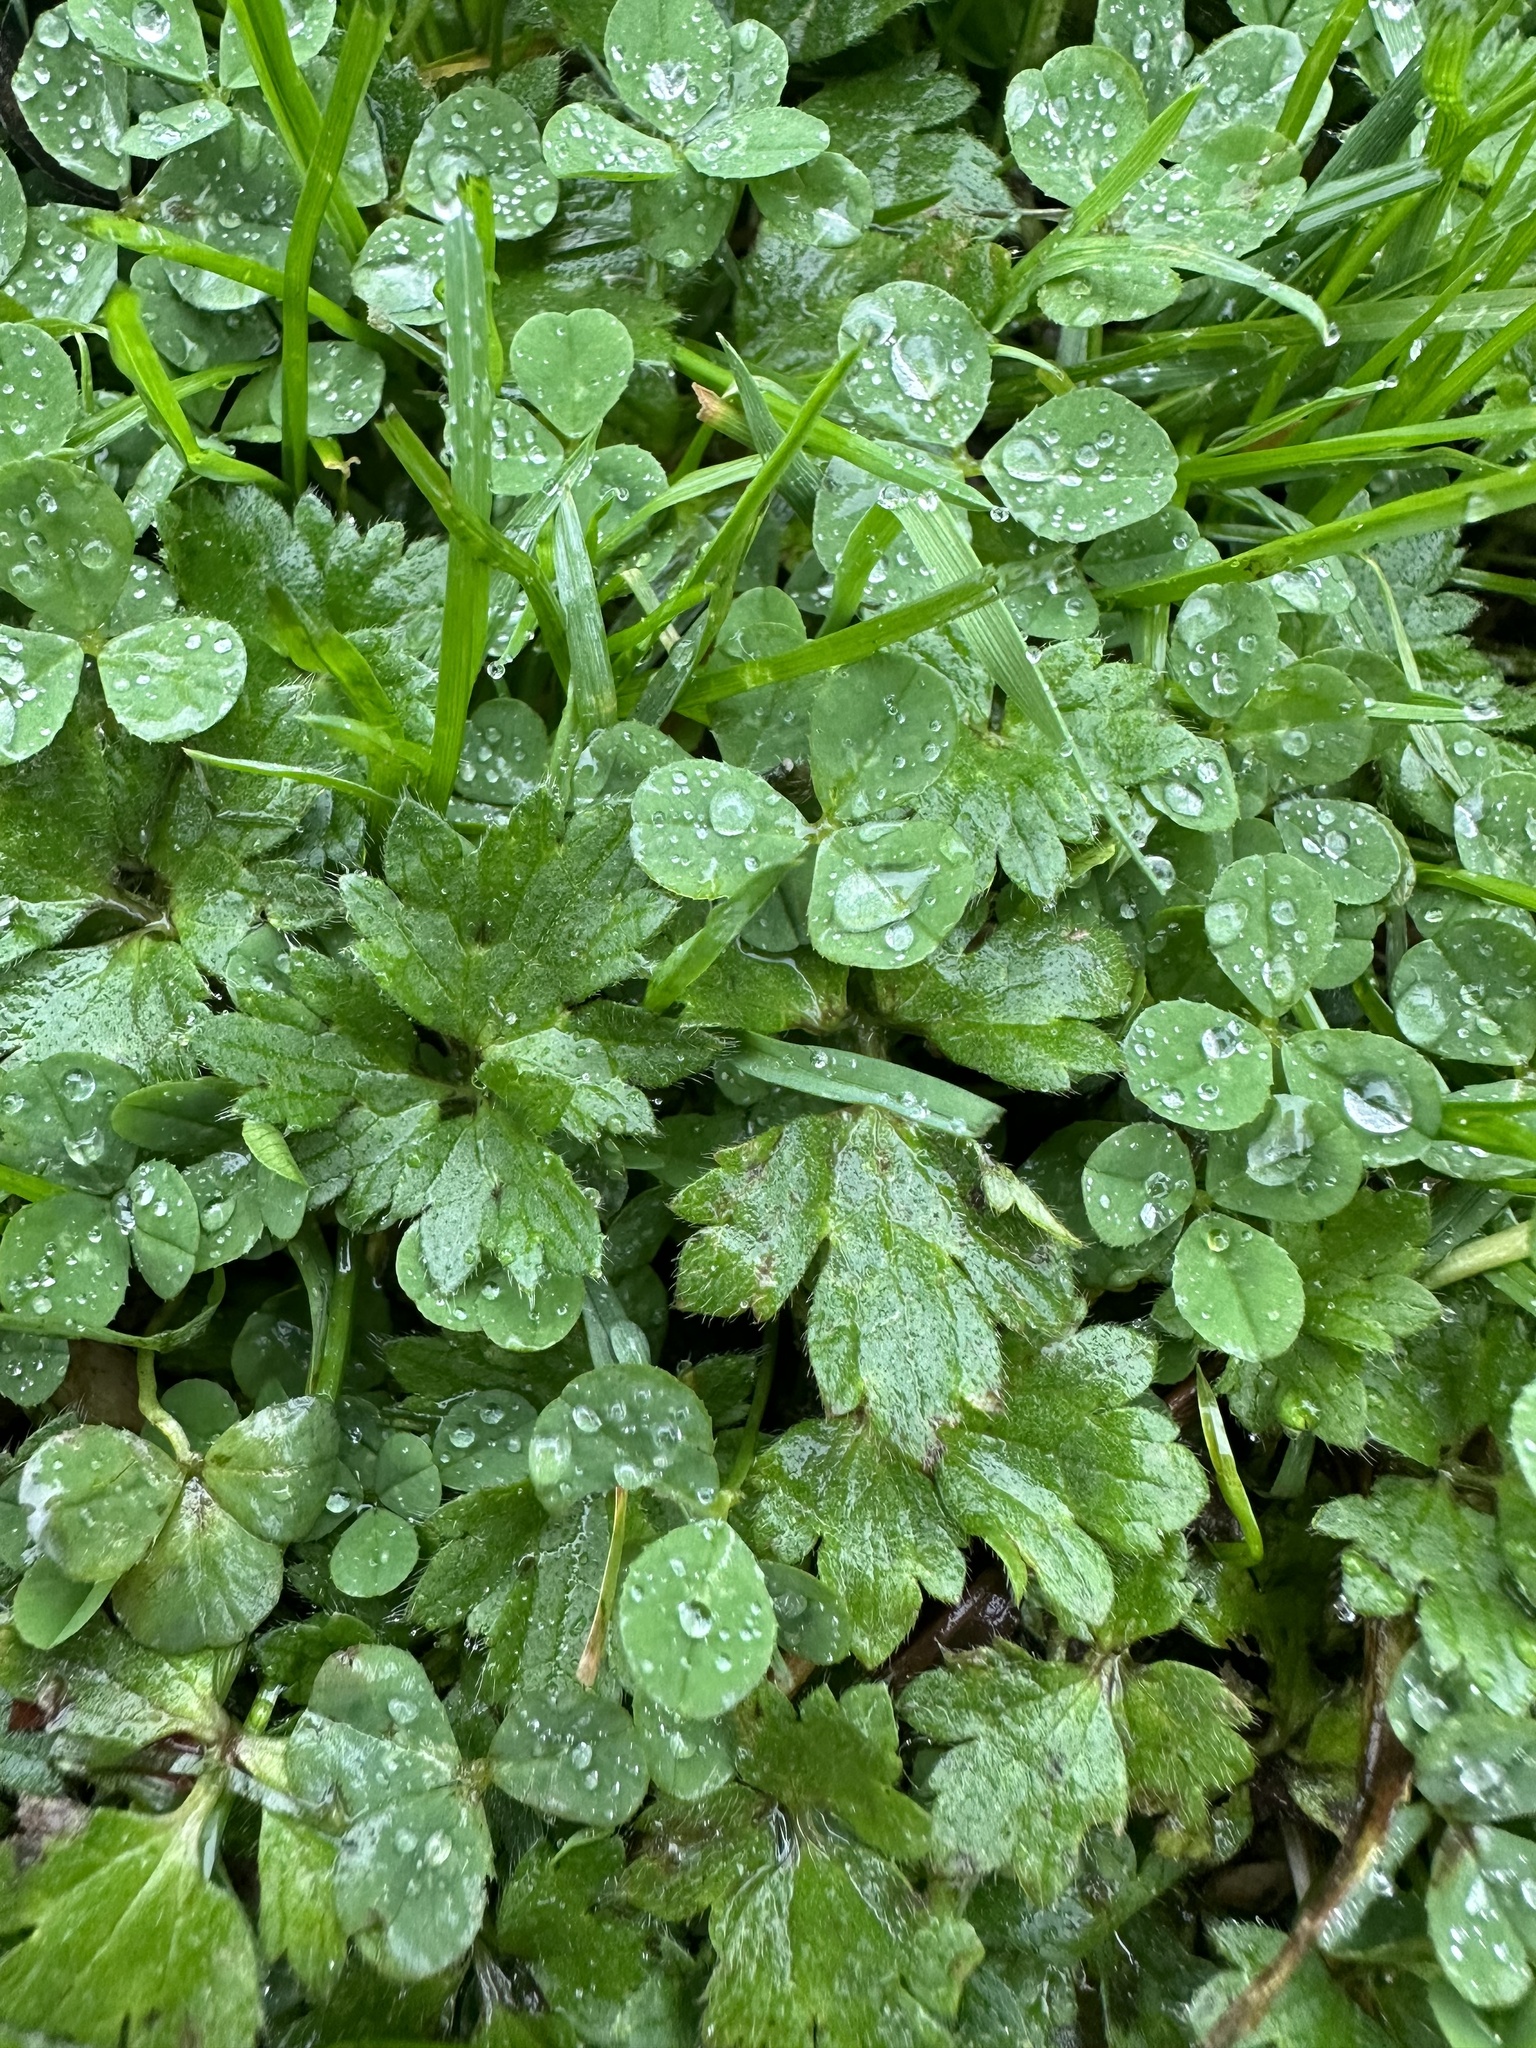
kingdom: Plantae
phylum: Tracheophyta
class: Magnoliopsida
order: Fabales
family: Fabaceae
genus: Trifolium
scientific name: Trifolium repens
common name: White clover
